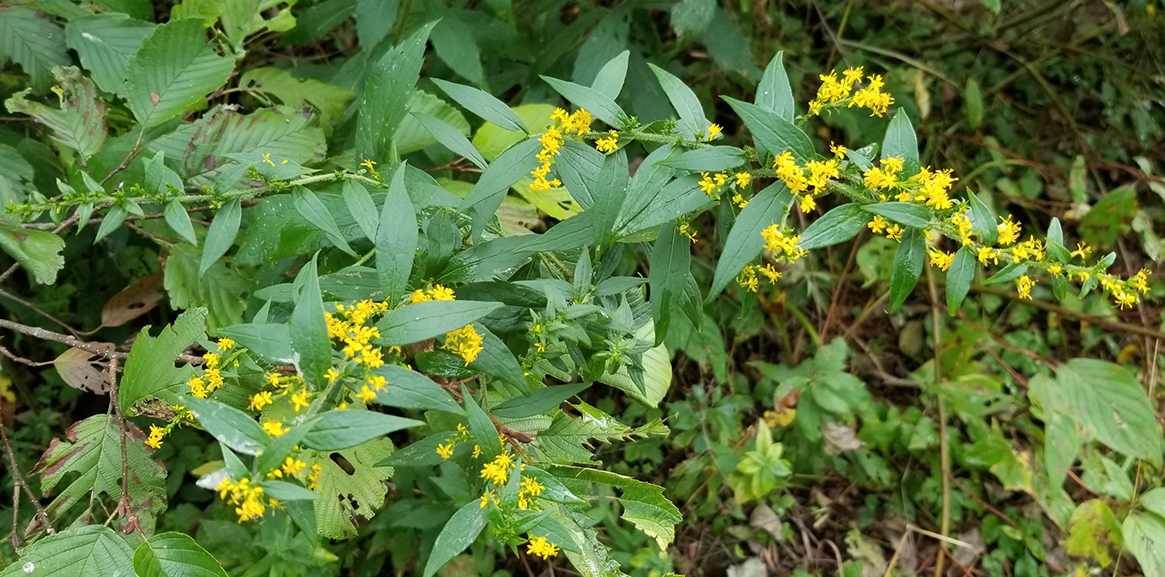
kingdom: Plantae
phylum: Tracheophyta
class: Magnoliopsida
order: Asterales
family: Asteraceae
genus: Solidago
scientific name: Solidago rugosa
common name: Rough-stemmed goldenrod
